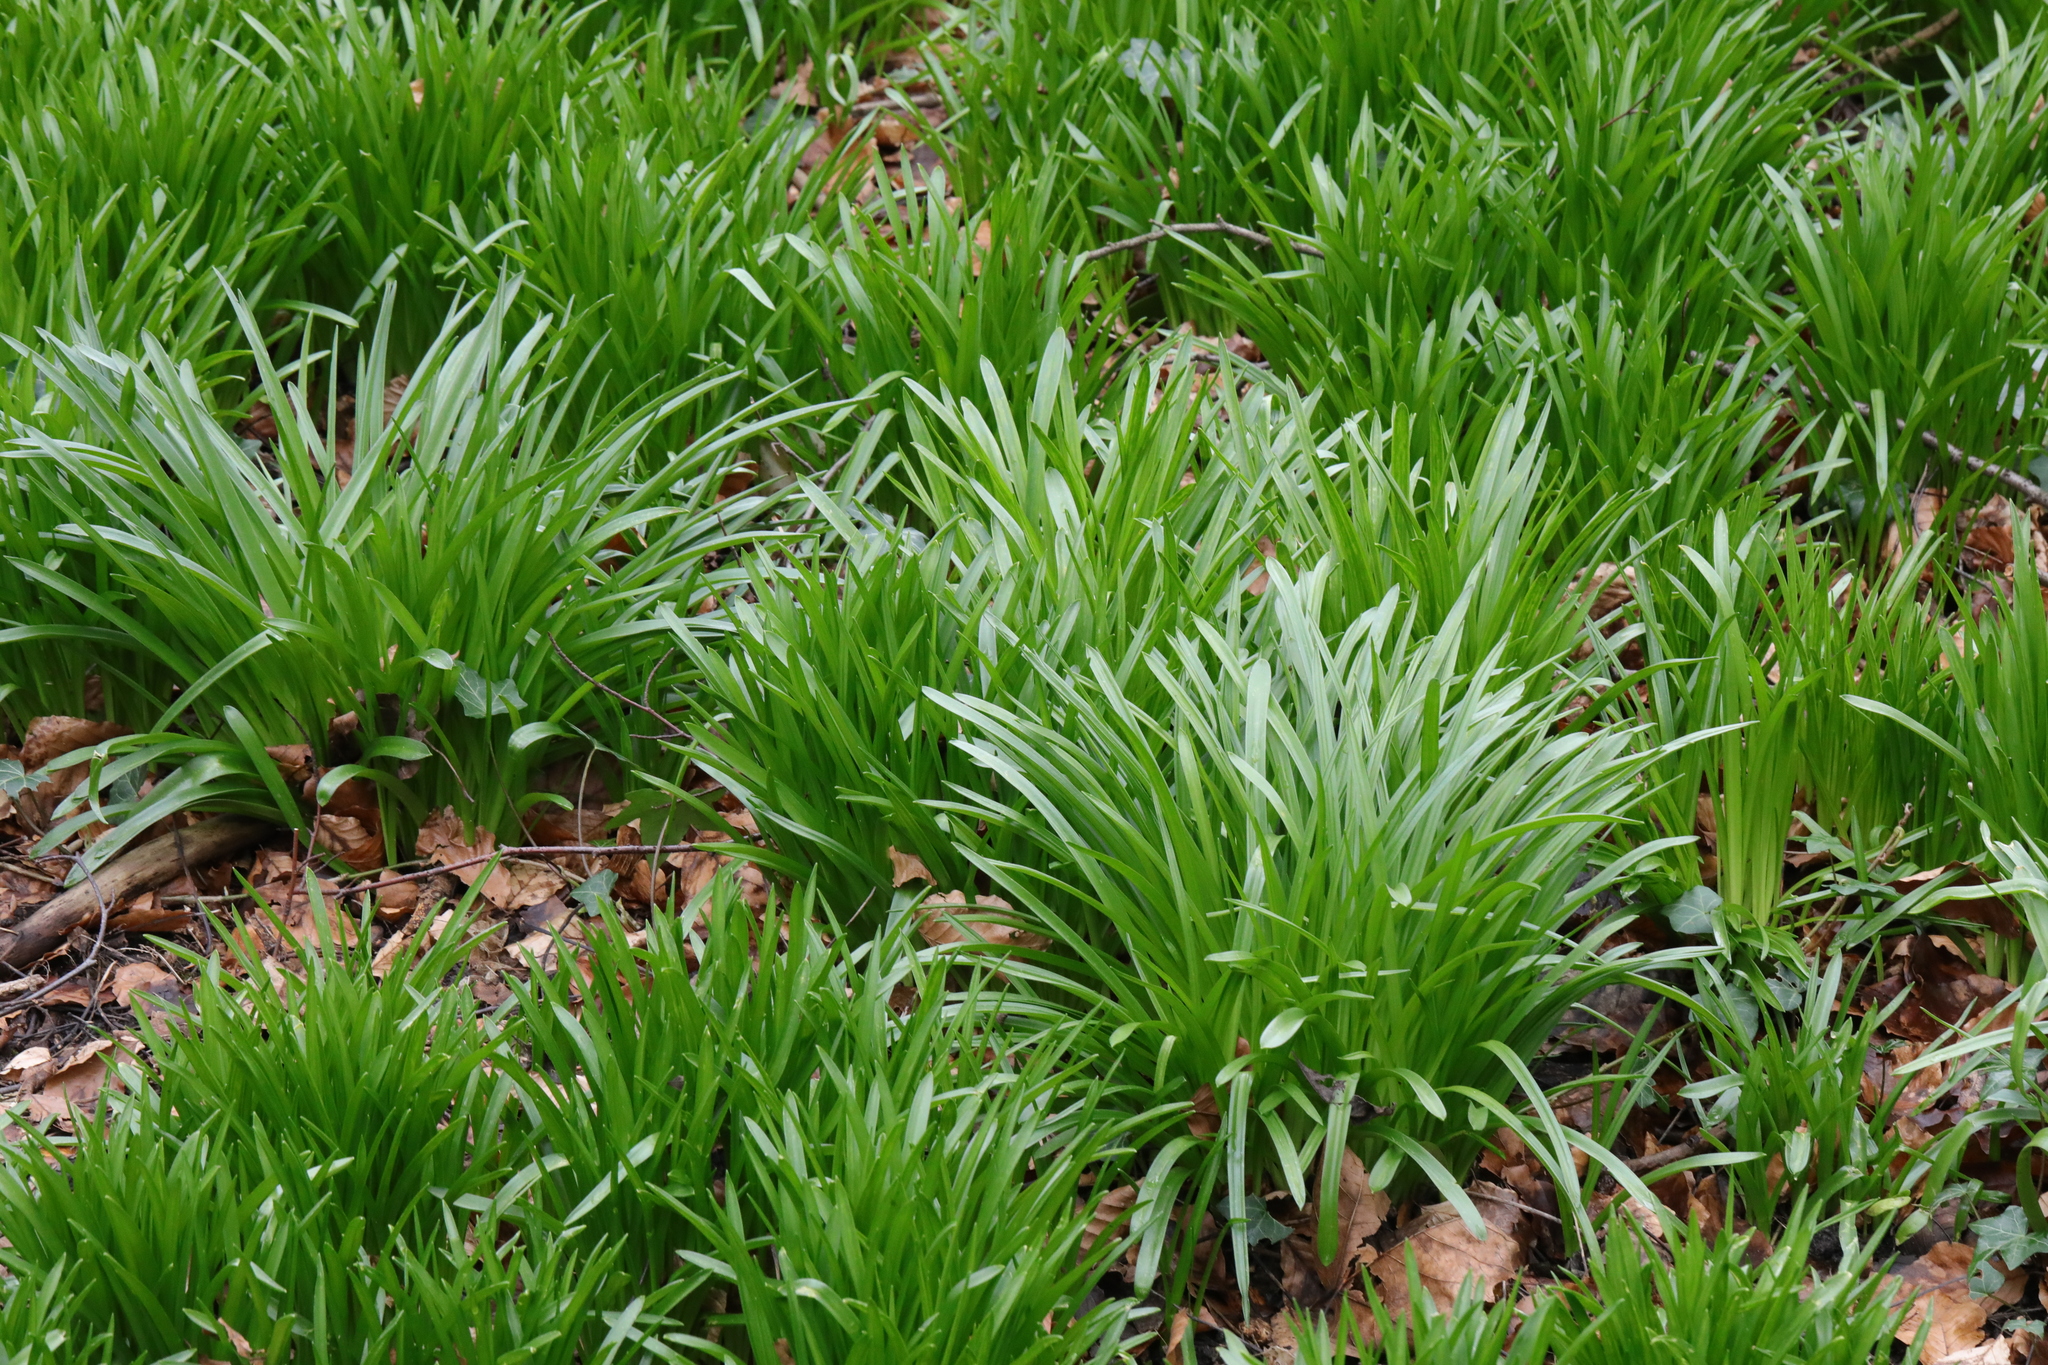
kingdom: Plantae
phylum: Tracheophyta
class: Liliopsida
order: Asparagales
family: Asparagaceae
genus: Hyacinthoides
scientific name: Hyacinthoides non-scripta
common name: Bluebell
